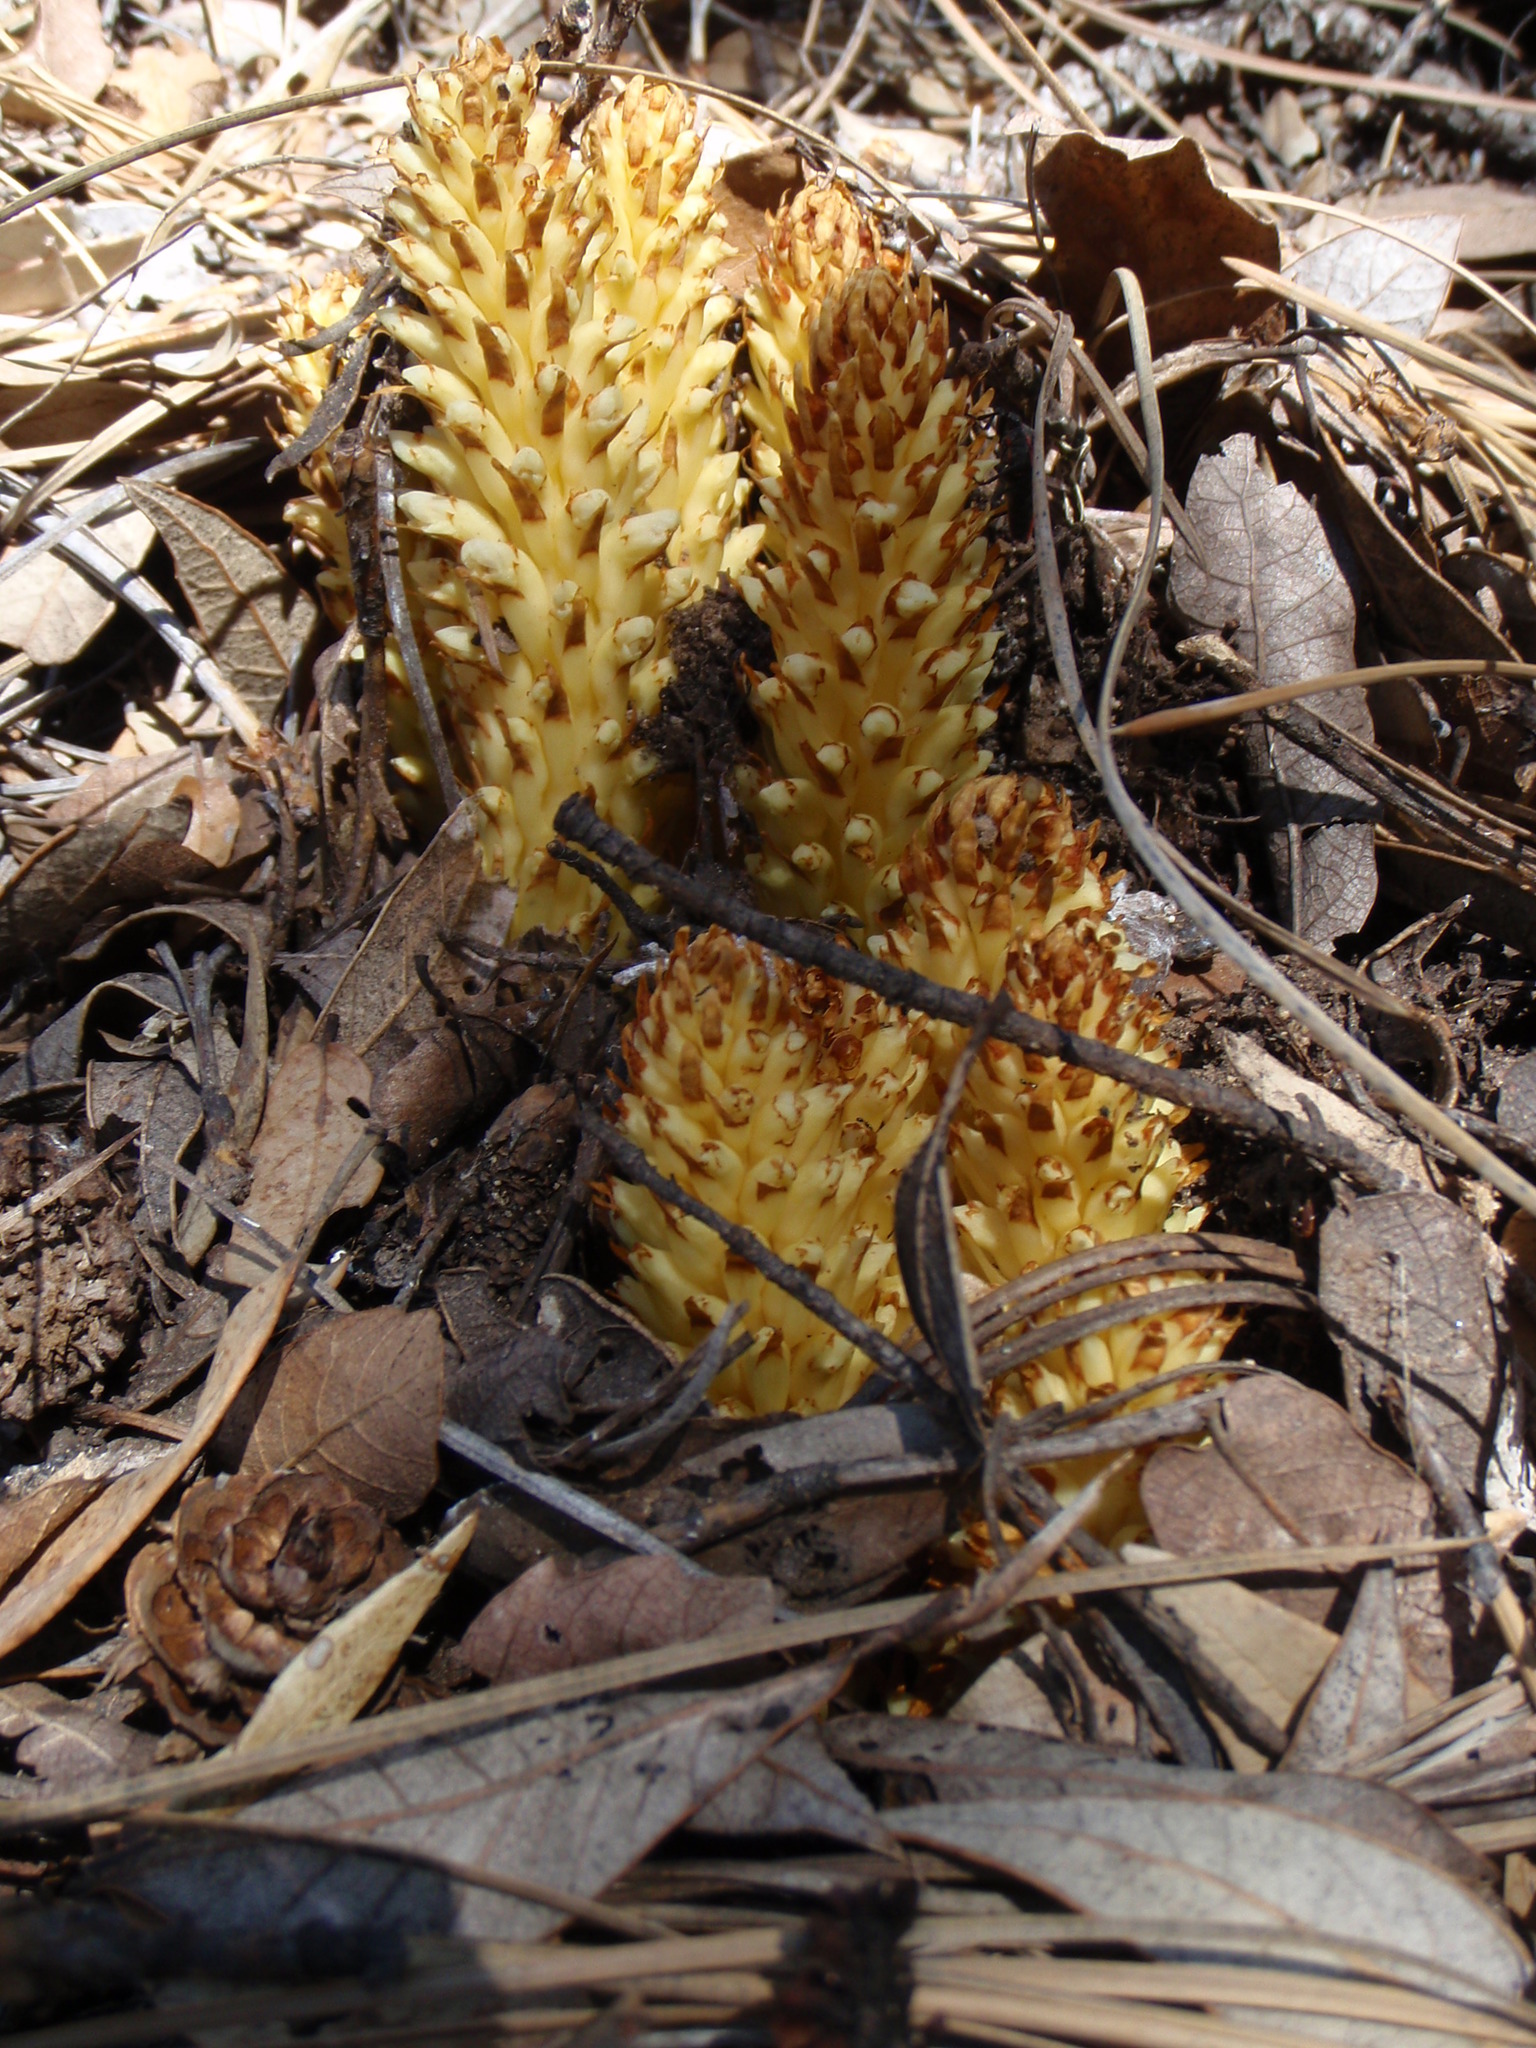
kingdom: Plantae
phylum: Tracheophyta
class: Magnoliopsida
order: Lamiales
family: Orobanchaceae
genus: Conopholis
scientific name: Conopholis alpina
